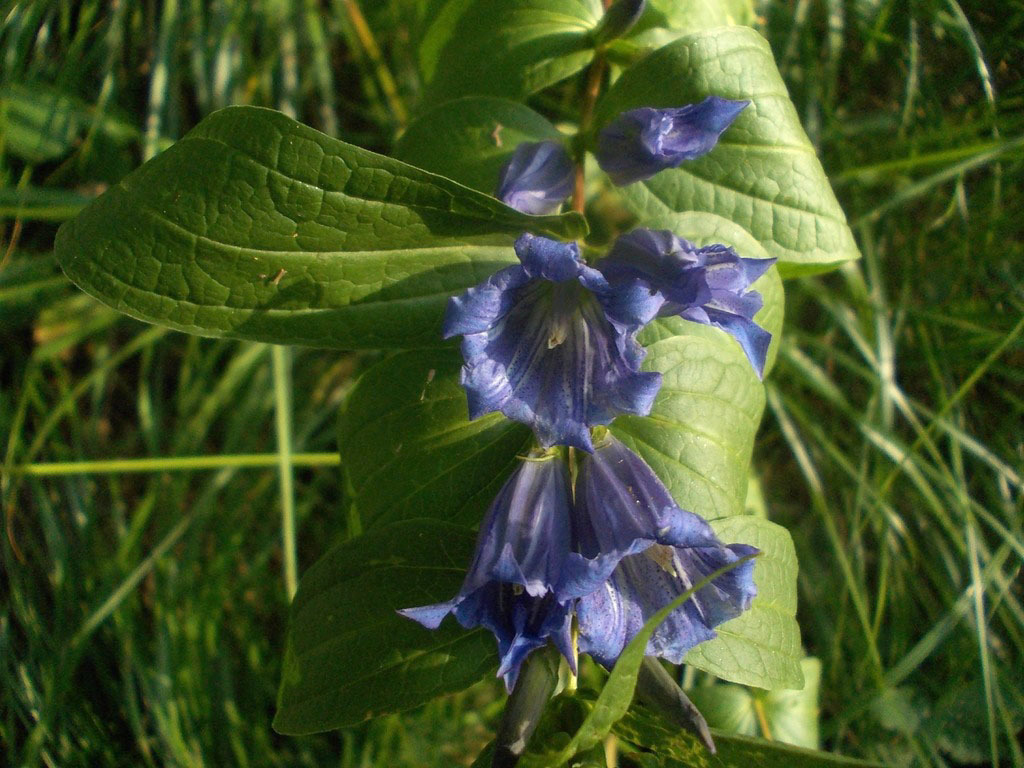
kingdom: Plantae
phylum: Tracheophyta
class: Magnoliopsida
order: Gentianales
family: Gentianaceae
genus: Gentiana
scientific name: Gentiana asclepiadea
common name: Willow gentian
